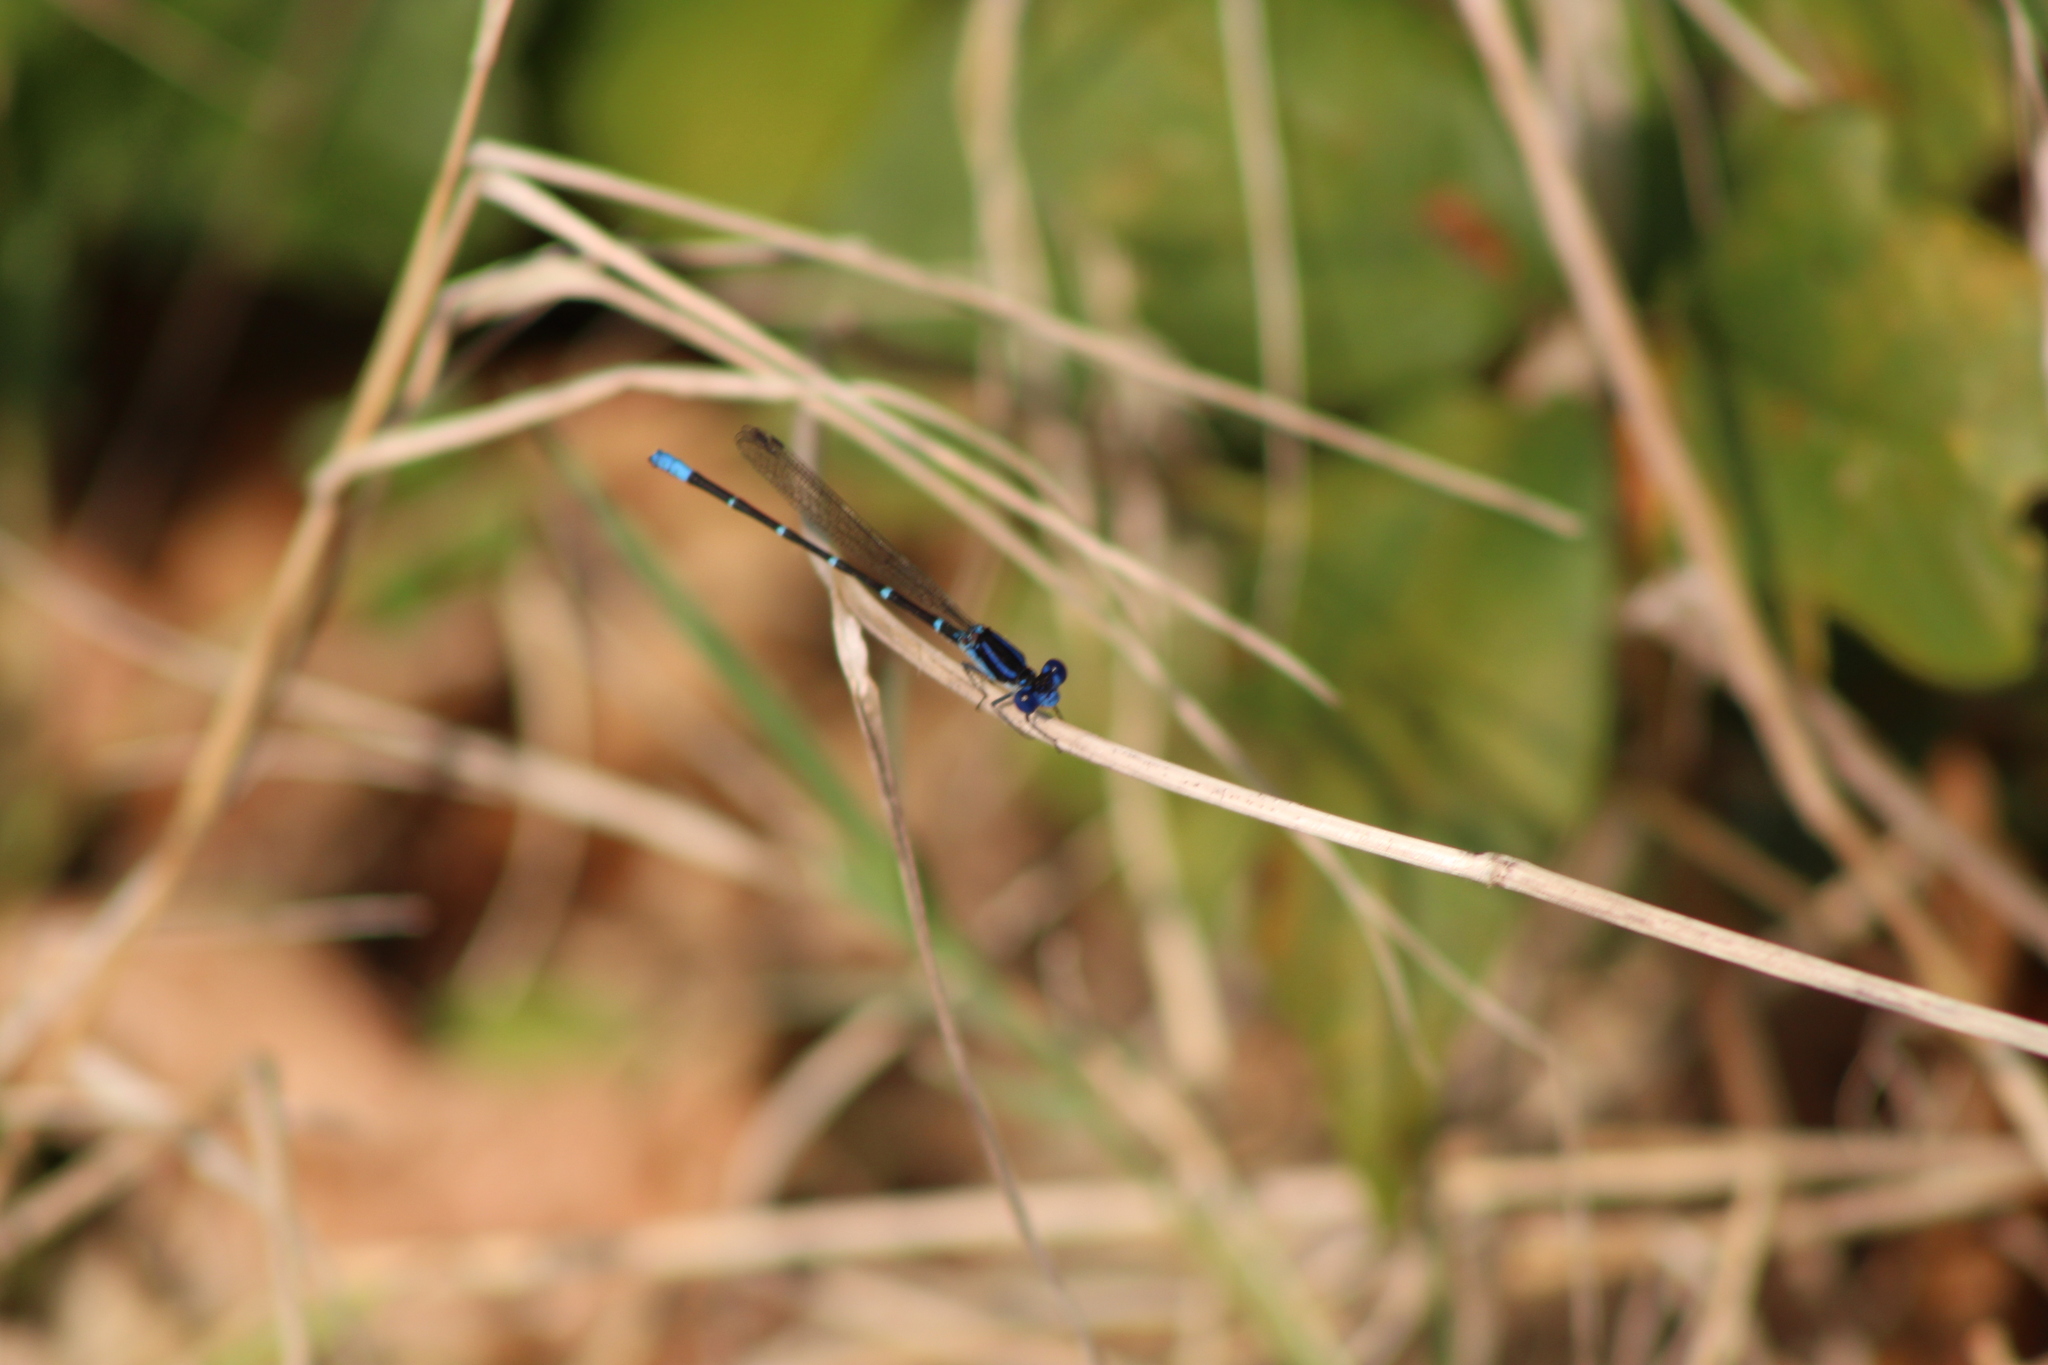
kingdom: Animalia
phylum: Arthropoda
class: Insecta
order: Odonata
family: Coenagrionidae
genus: Argia
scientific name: Argia sedula
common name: Blue-ringed dancer
